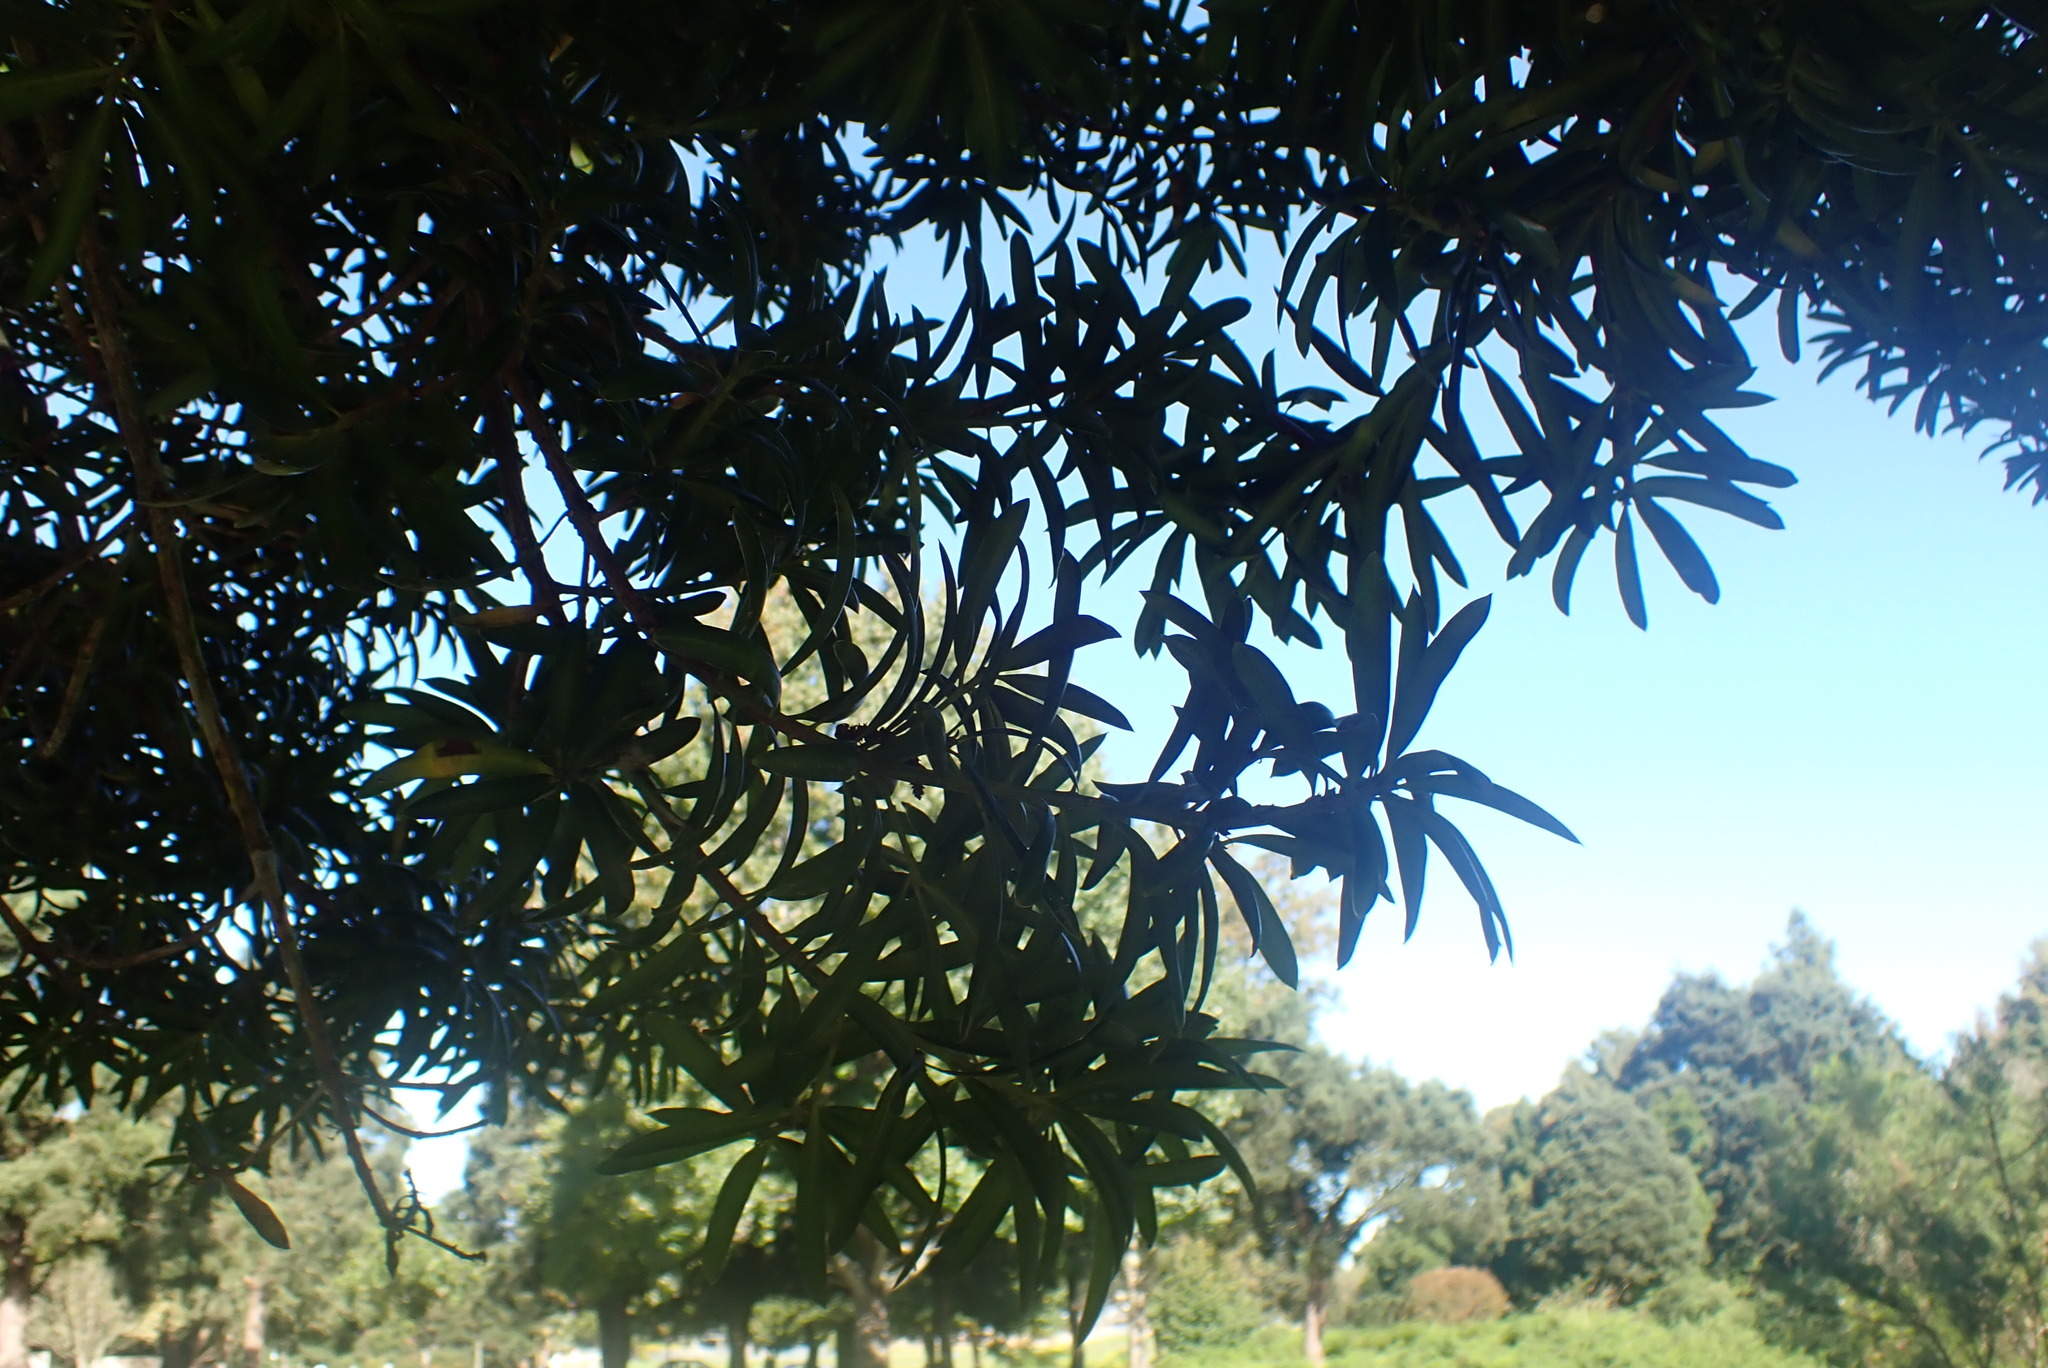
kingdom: Plantae
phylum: Tracheophyta
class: Pinopsida
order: Pinales
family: Podocarpaceae
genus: Podocarpus
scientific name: Podocarpus latifolius
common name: True yellowwood
